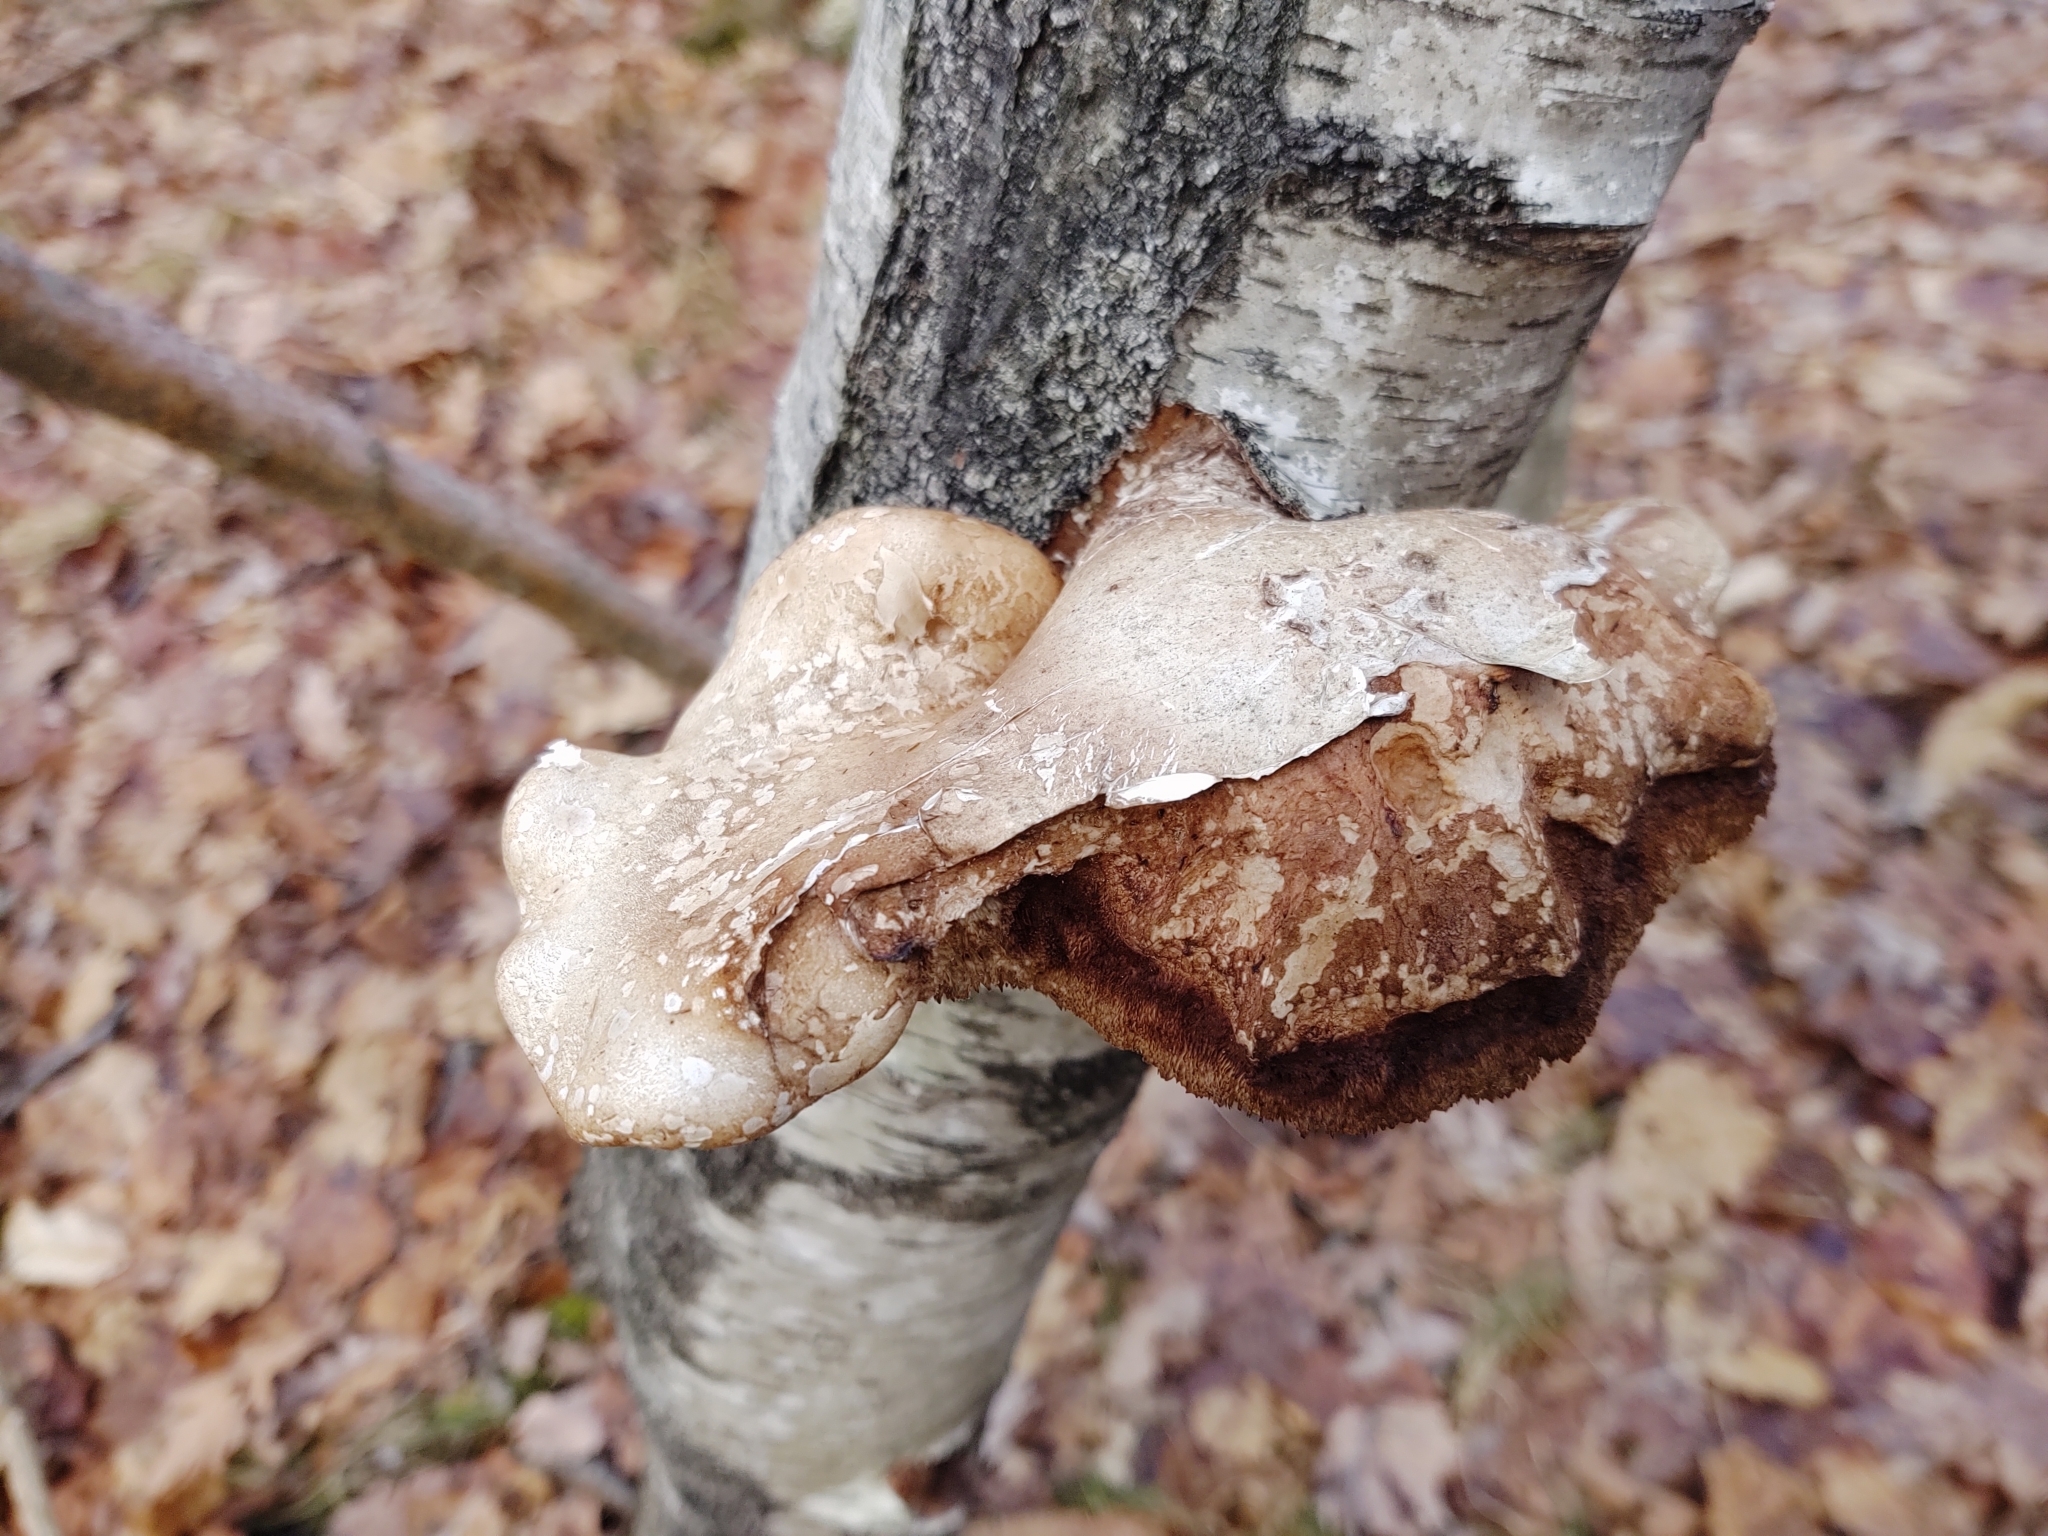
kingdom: Fungi
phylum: Basidiomycota
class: Agaricomycetes
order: Polyporales
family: Fomitopsidaceae
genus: Fomitopsis
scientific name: Fomitopsis betulina
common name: Birch polypore
